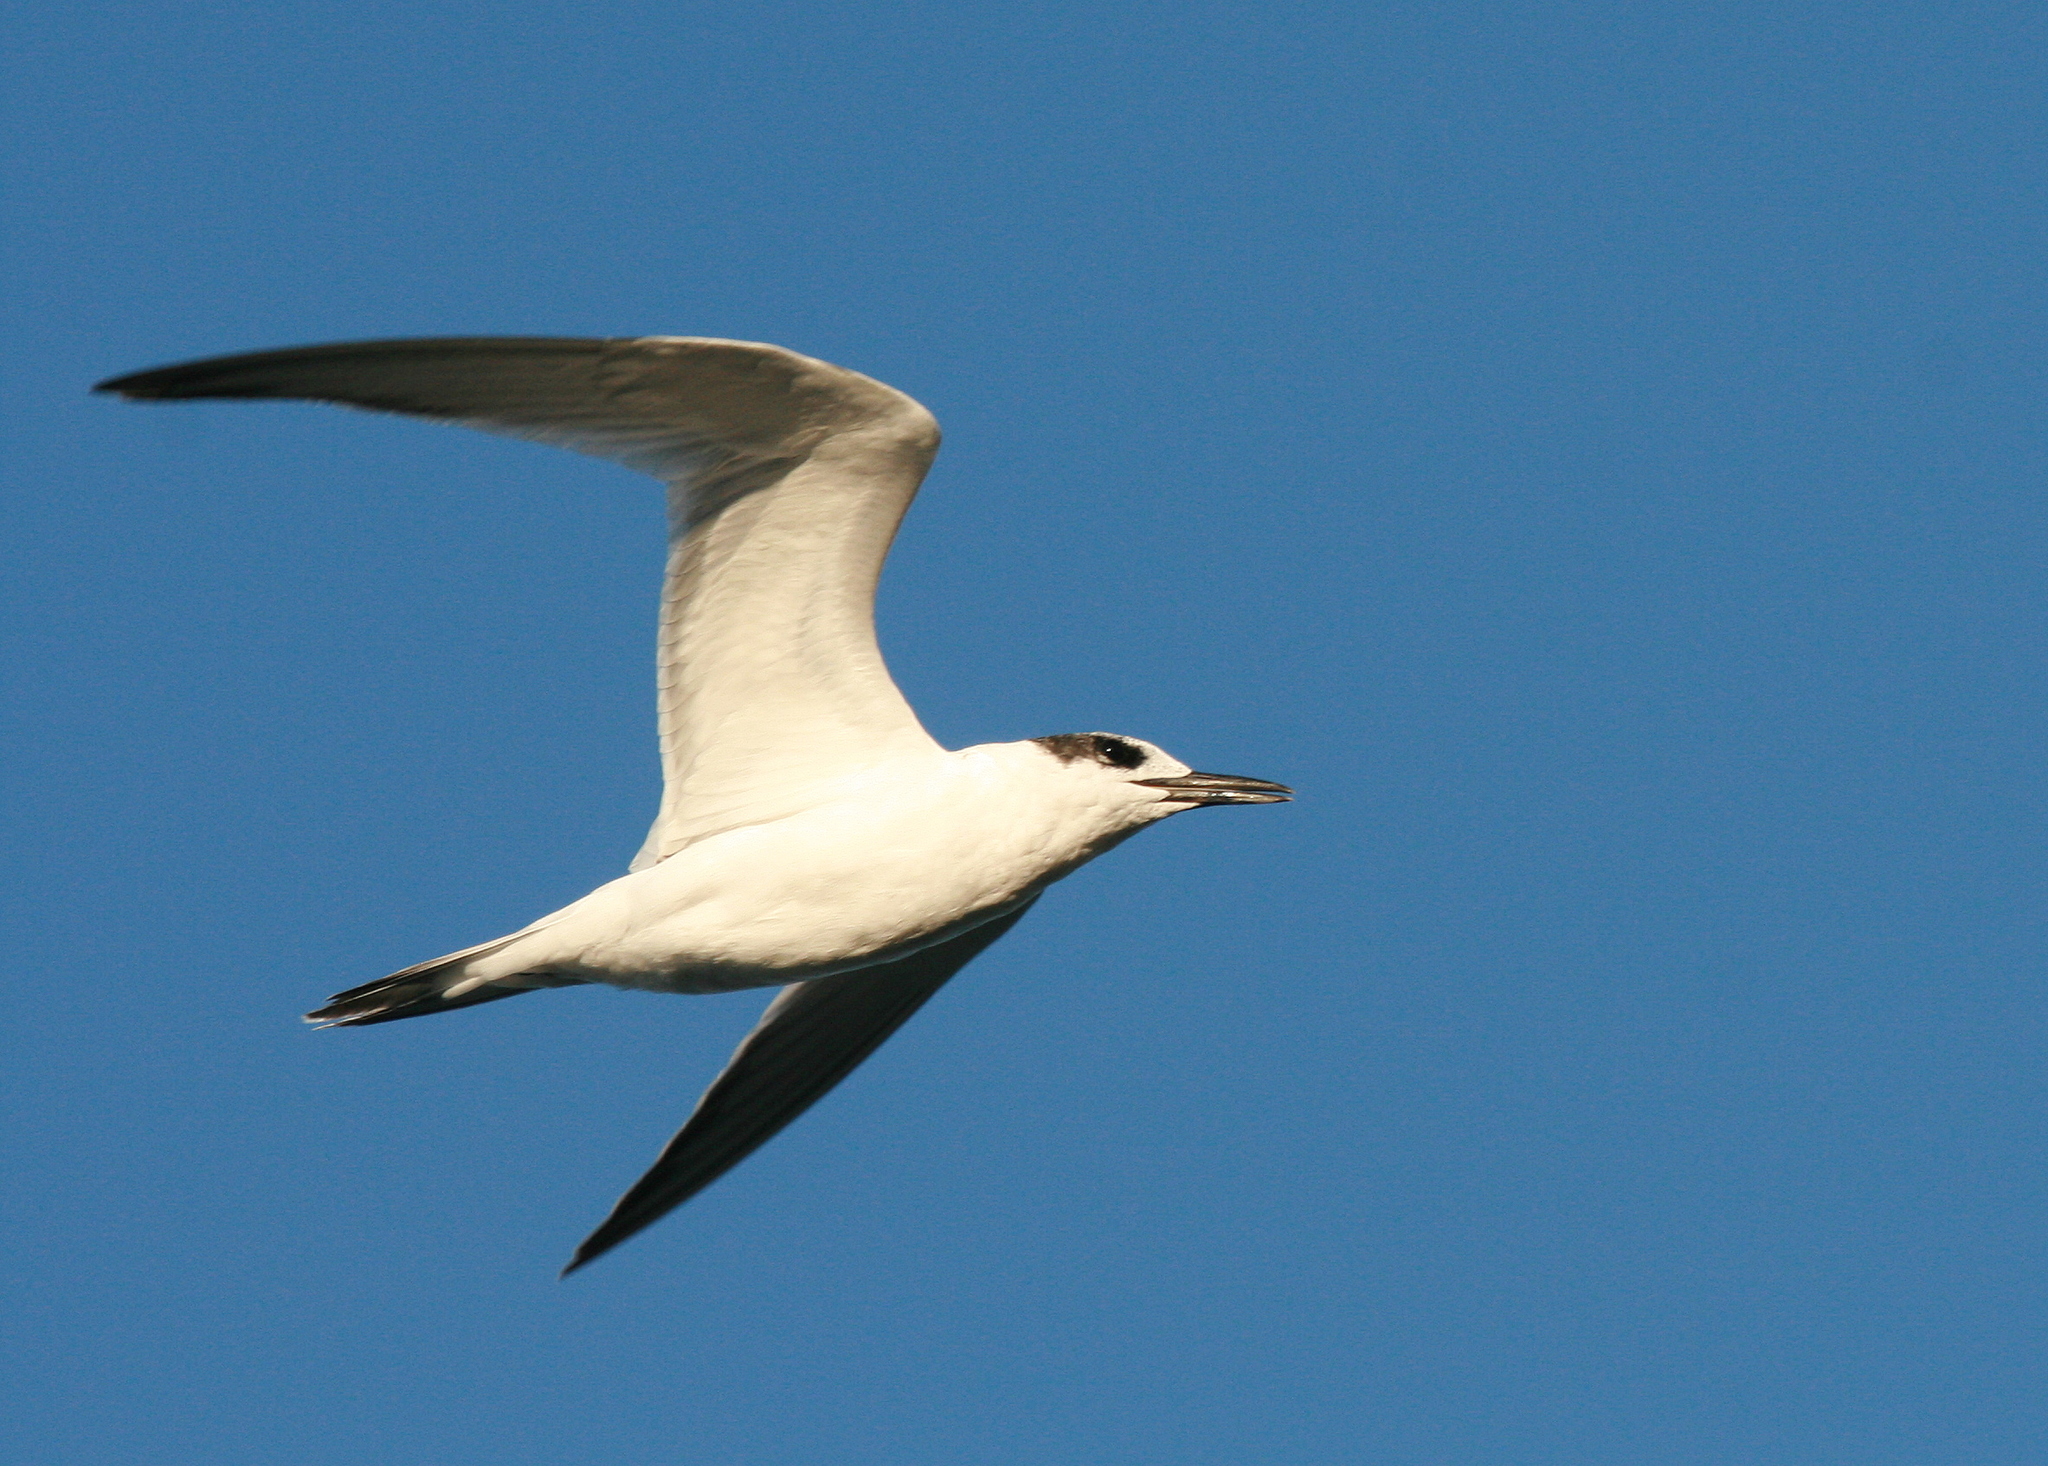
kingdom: Animalia
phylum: Chordata
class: Aves
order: Charadriiformes
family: Laridae
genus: Thalasseus
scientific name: Thalasseus sandvicensis
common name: Sandwich tern
